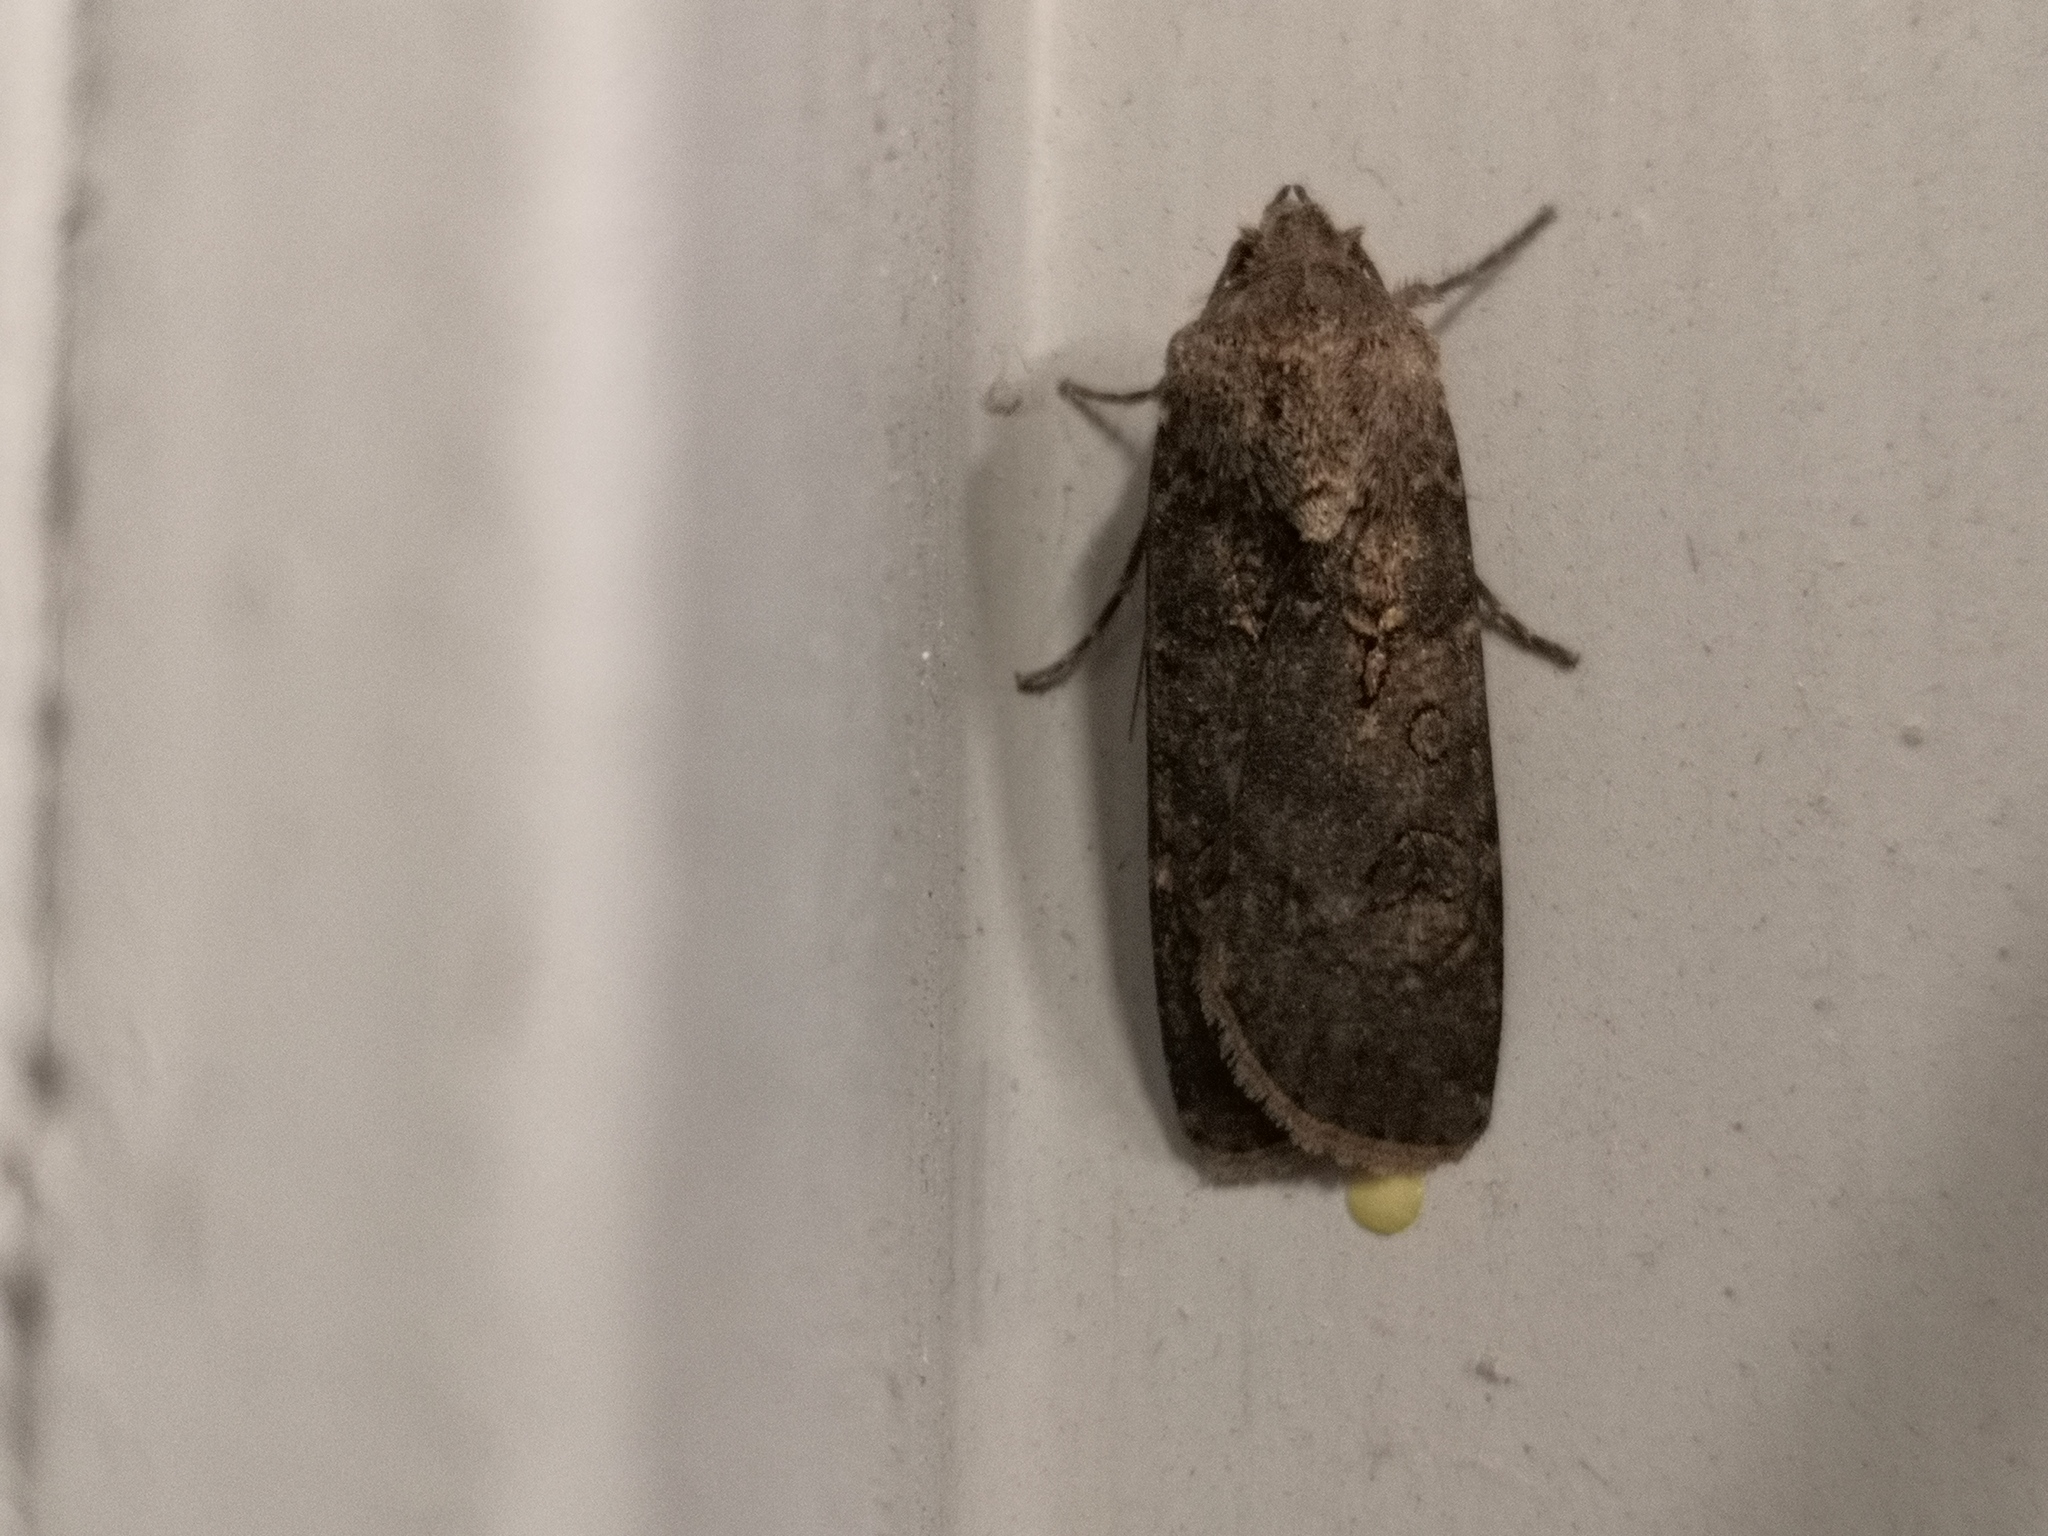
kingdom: Animalia
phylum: Arthropoda
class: Insecta
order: Lepidoptera
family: Noctuidae
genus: Agrotis
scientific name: Agrotis segetum
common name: Turnip moth
